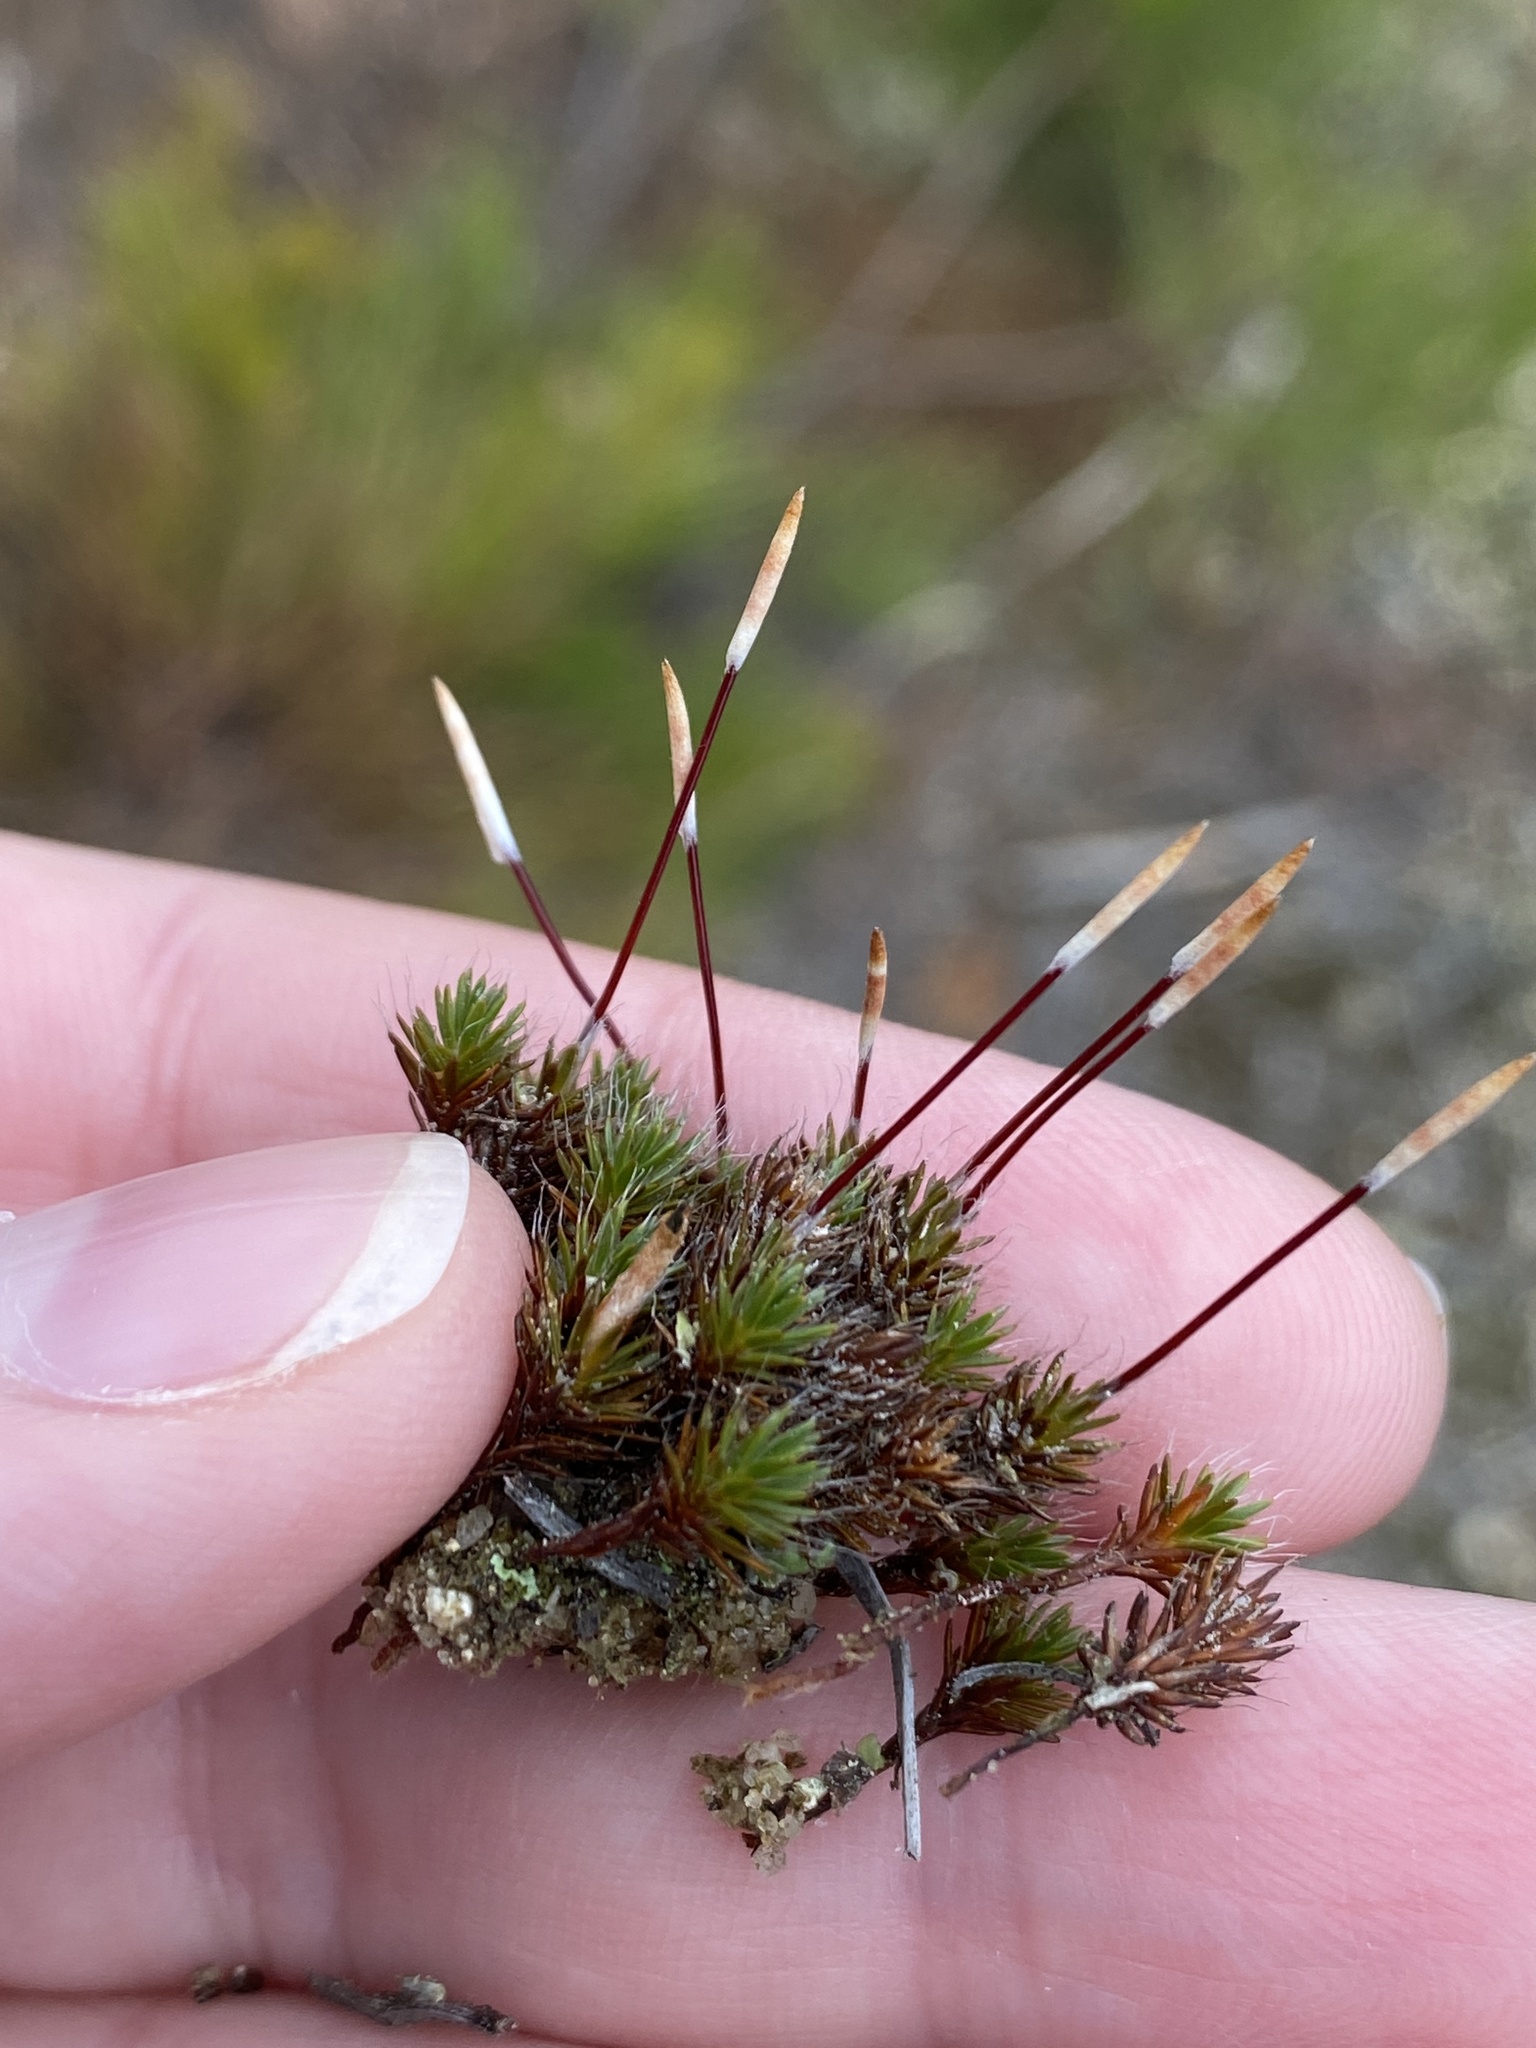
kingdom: Plantae
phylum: Bryophyta
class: Polytrichopsida
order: Polytrichales
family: Polytrichaceae
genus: Polytrichum
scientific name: Polytrichum piliferum
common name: Bristly haircap
